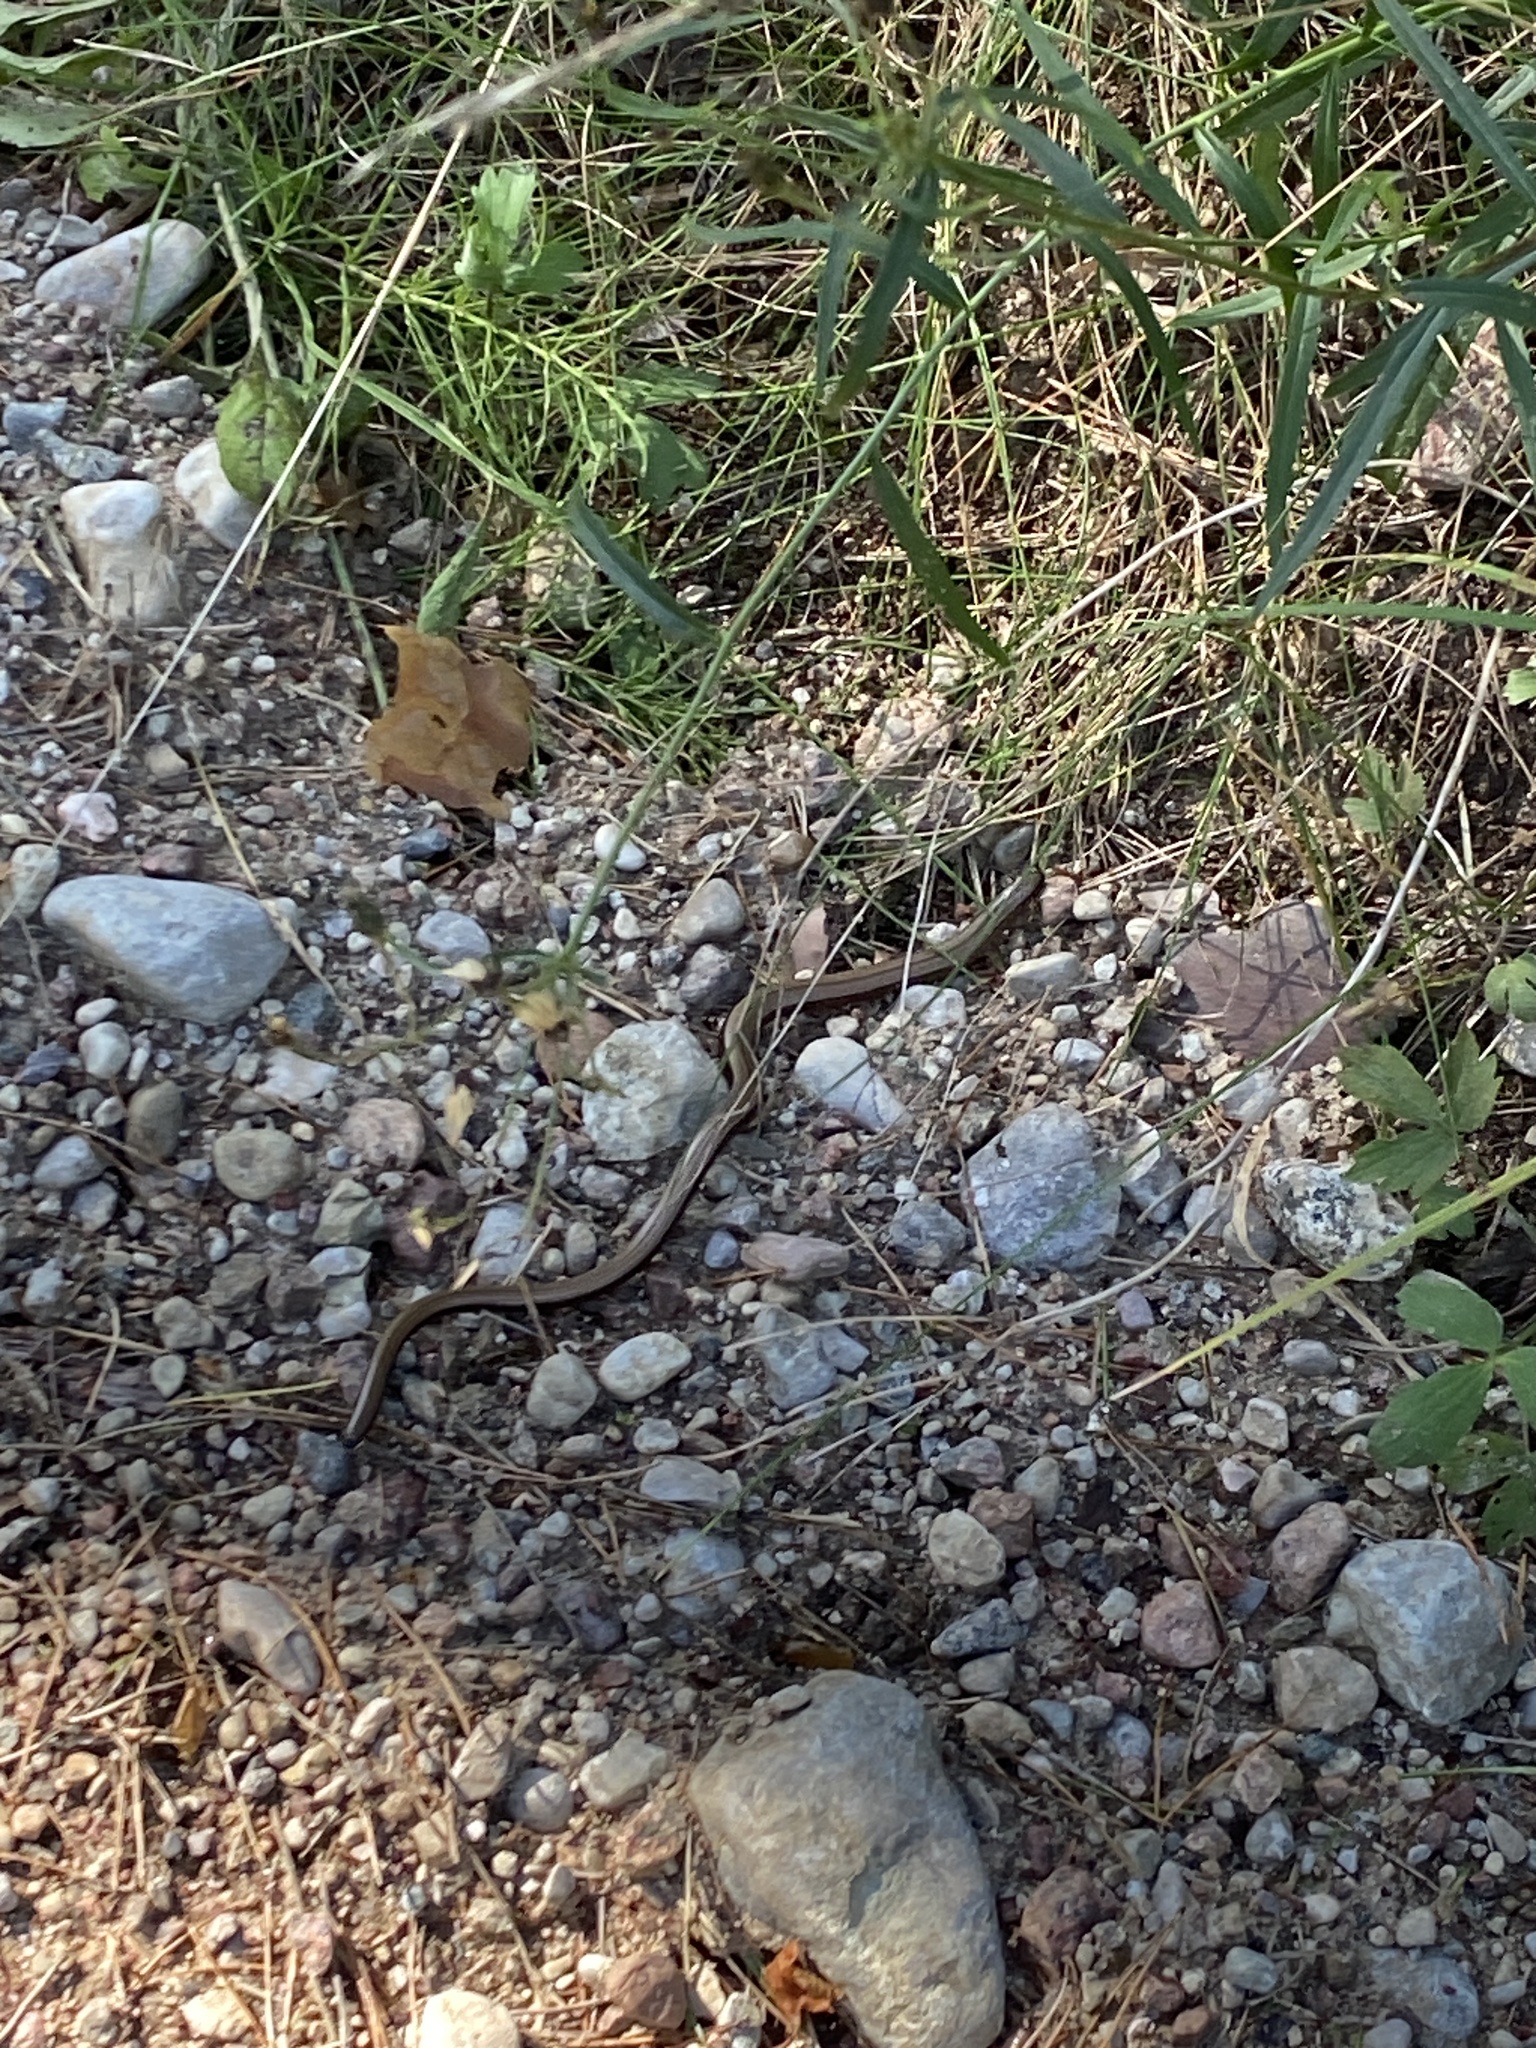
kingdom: Animalia
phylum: Chordata
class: Squamata
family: Anguidae
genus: Anguis
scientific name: Anguis fragilis
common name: Slow worm
